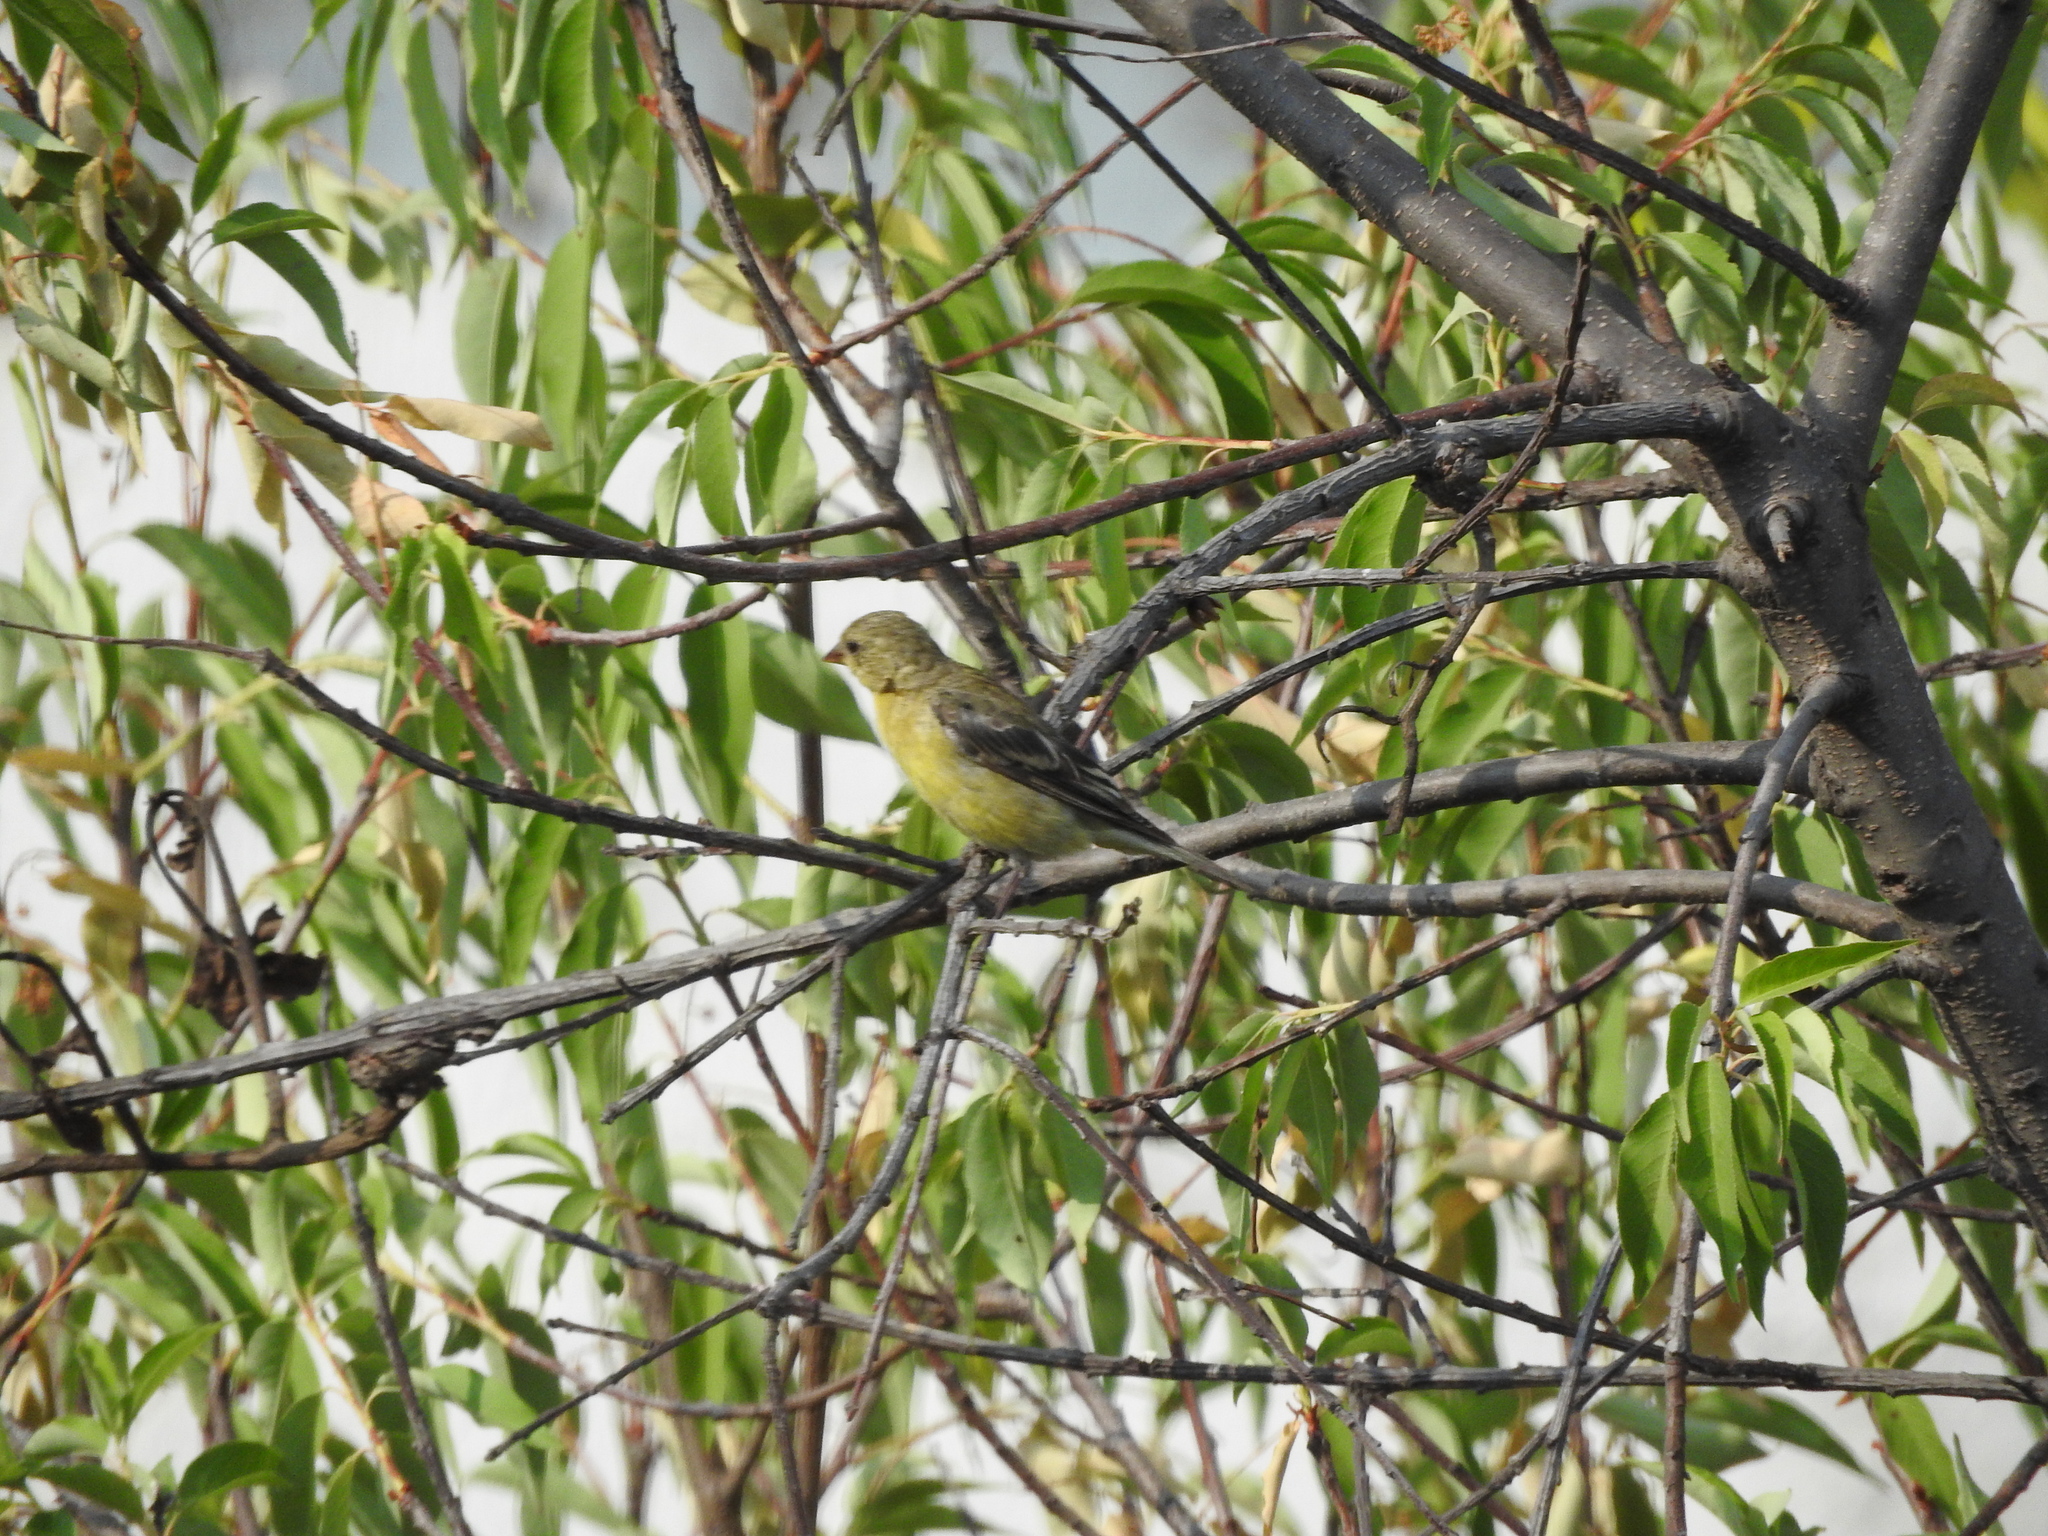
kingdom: Animalia
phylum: Chordata
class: Aves
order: Passeriformes
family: Fringillidae
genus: Spinus
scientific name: Spinus psaltria
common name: Lesser goldfinch
